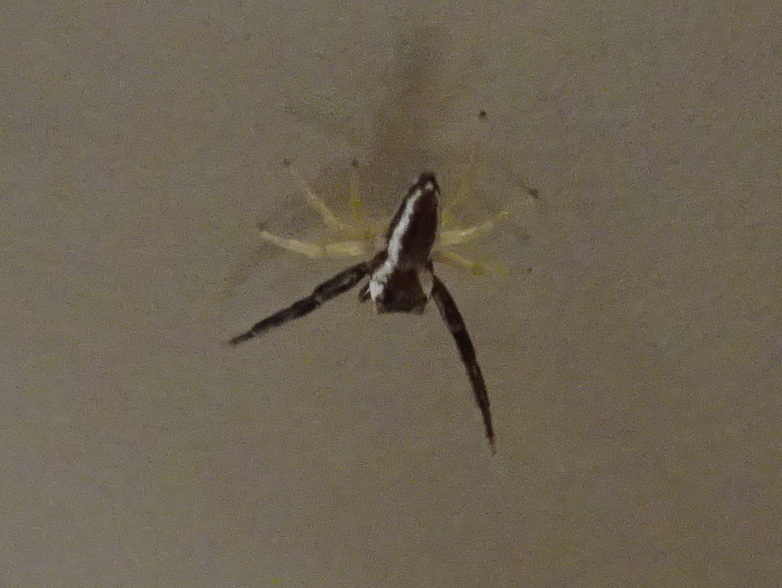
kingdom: Animalia
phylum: Arthropoda
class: Arachnida
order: Araneae
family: Salticidae
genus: Hentzia
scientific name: Hentzia palmarum
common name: Common hentz jumping spider
